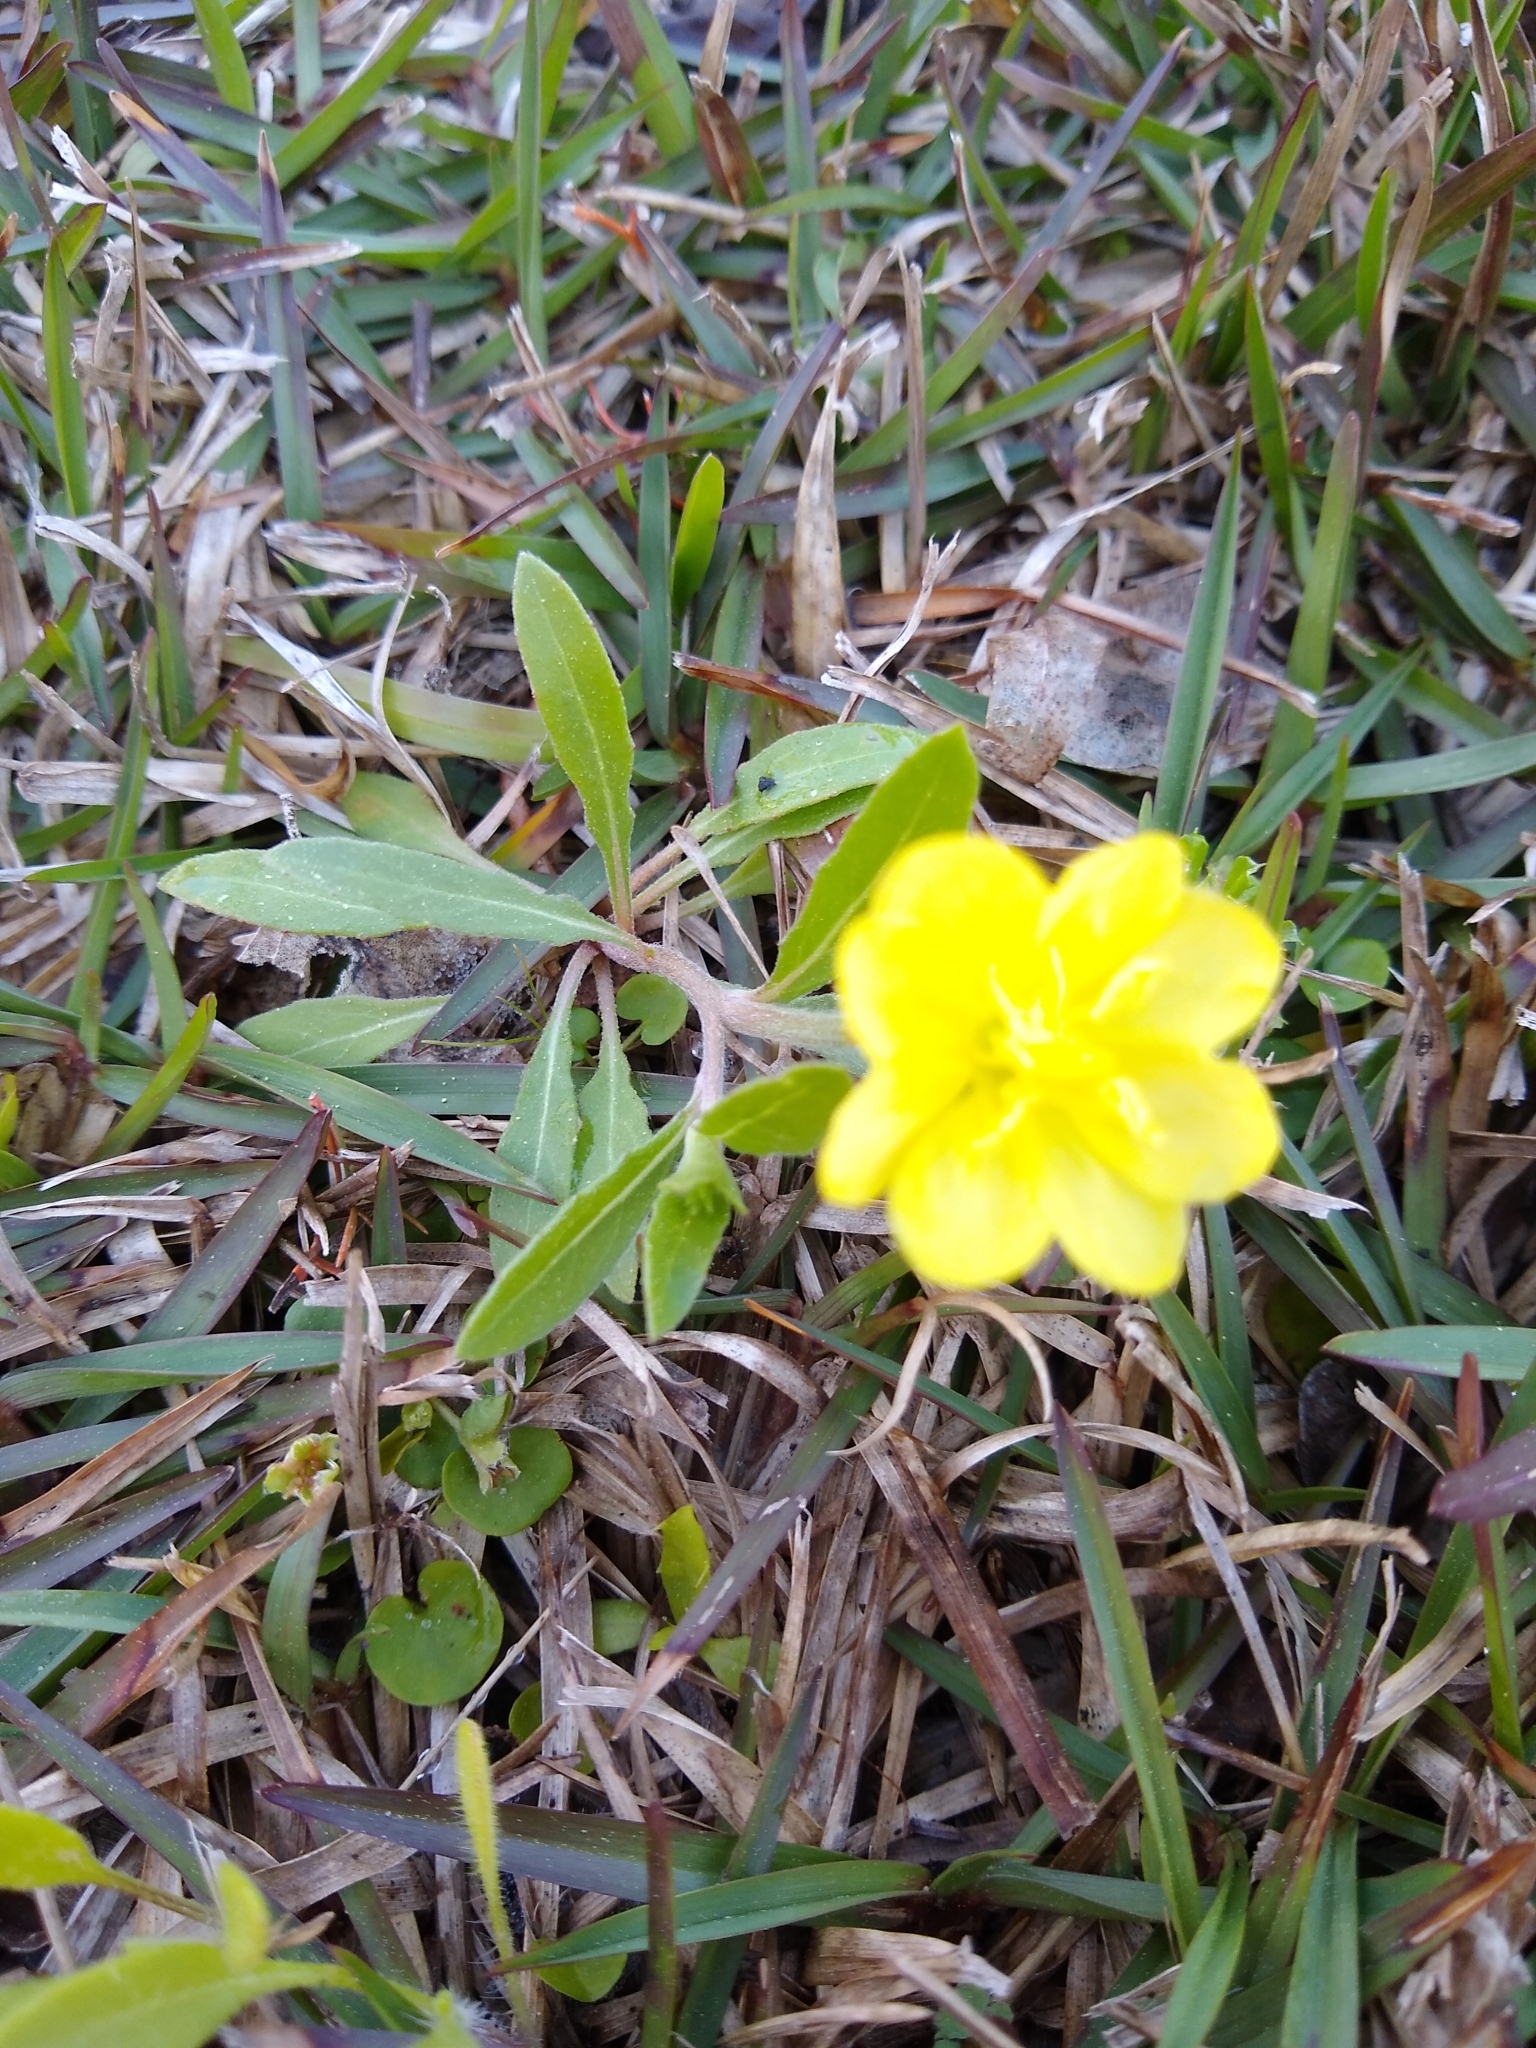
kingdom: Plantae
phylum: Tracheophyta
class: Magnoliopsida
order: Myrtales
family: Onagraceae
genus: Oenothera
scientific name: Oenothera laciniata
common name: Cut-leaved evening-primrose
